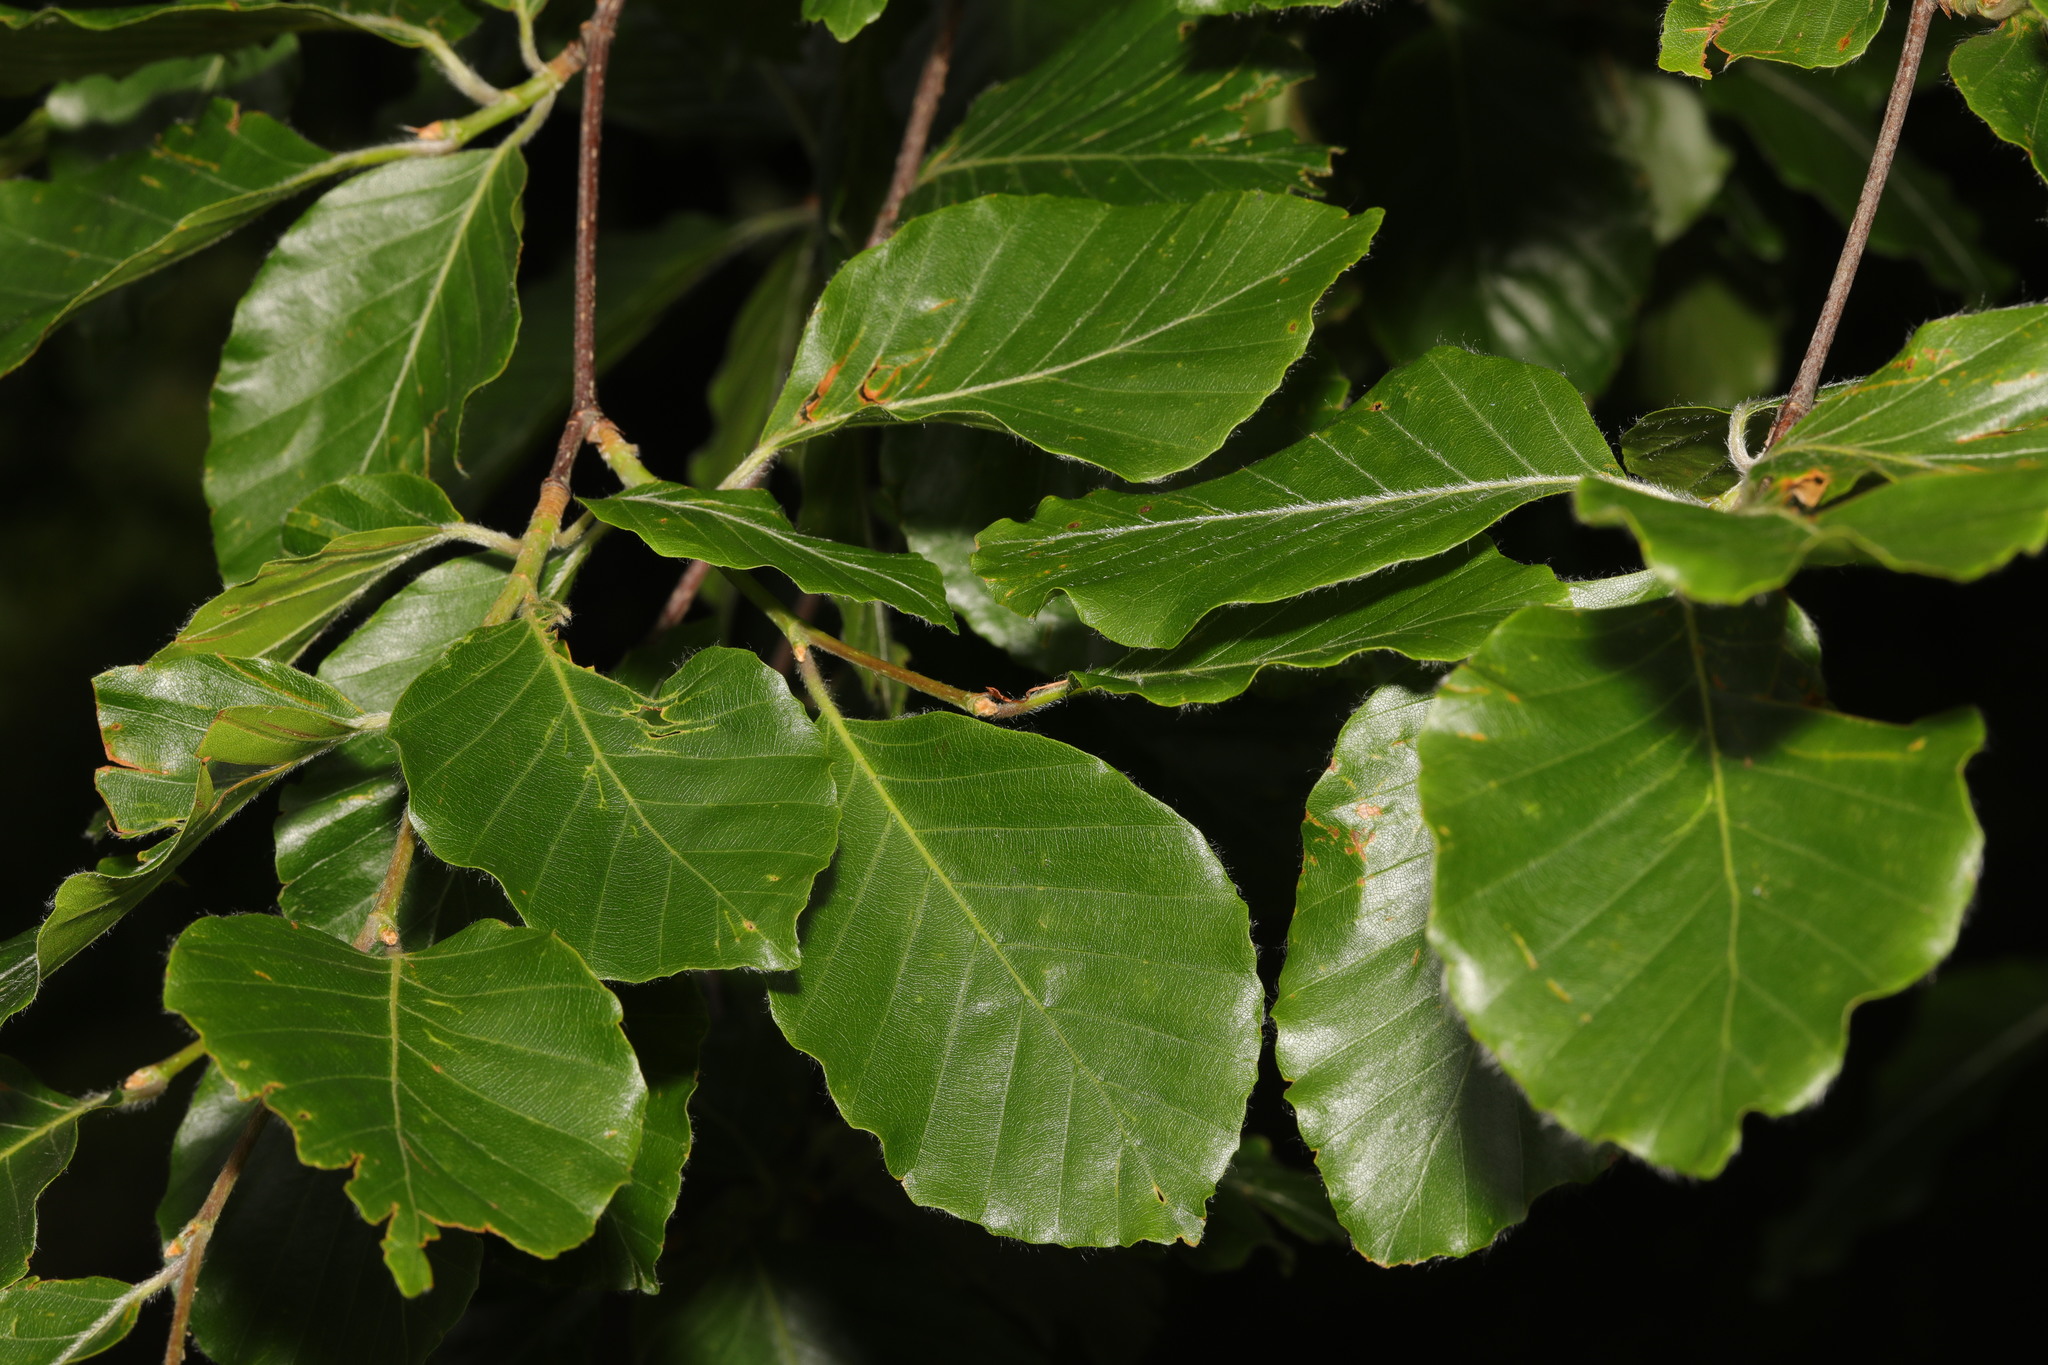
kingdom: Plantae
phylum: Tracheophyta
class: Magnoliopsida
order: Fagales
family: Fagaceae
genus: Fagus
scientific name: Fagus sylvatica
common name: Beech
